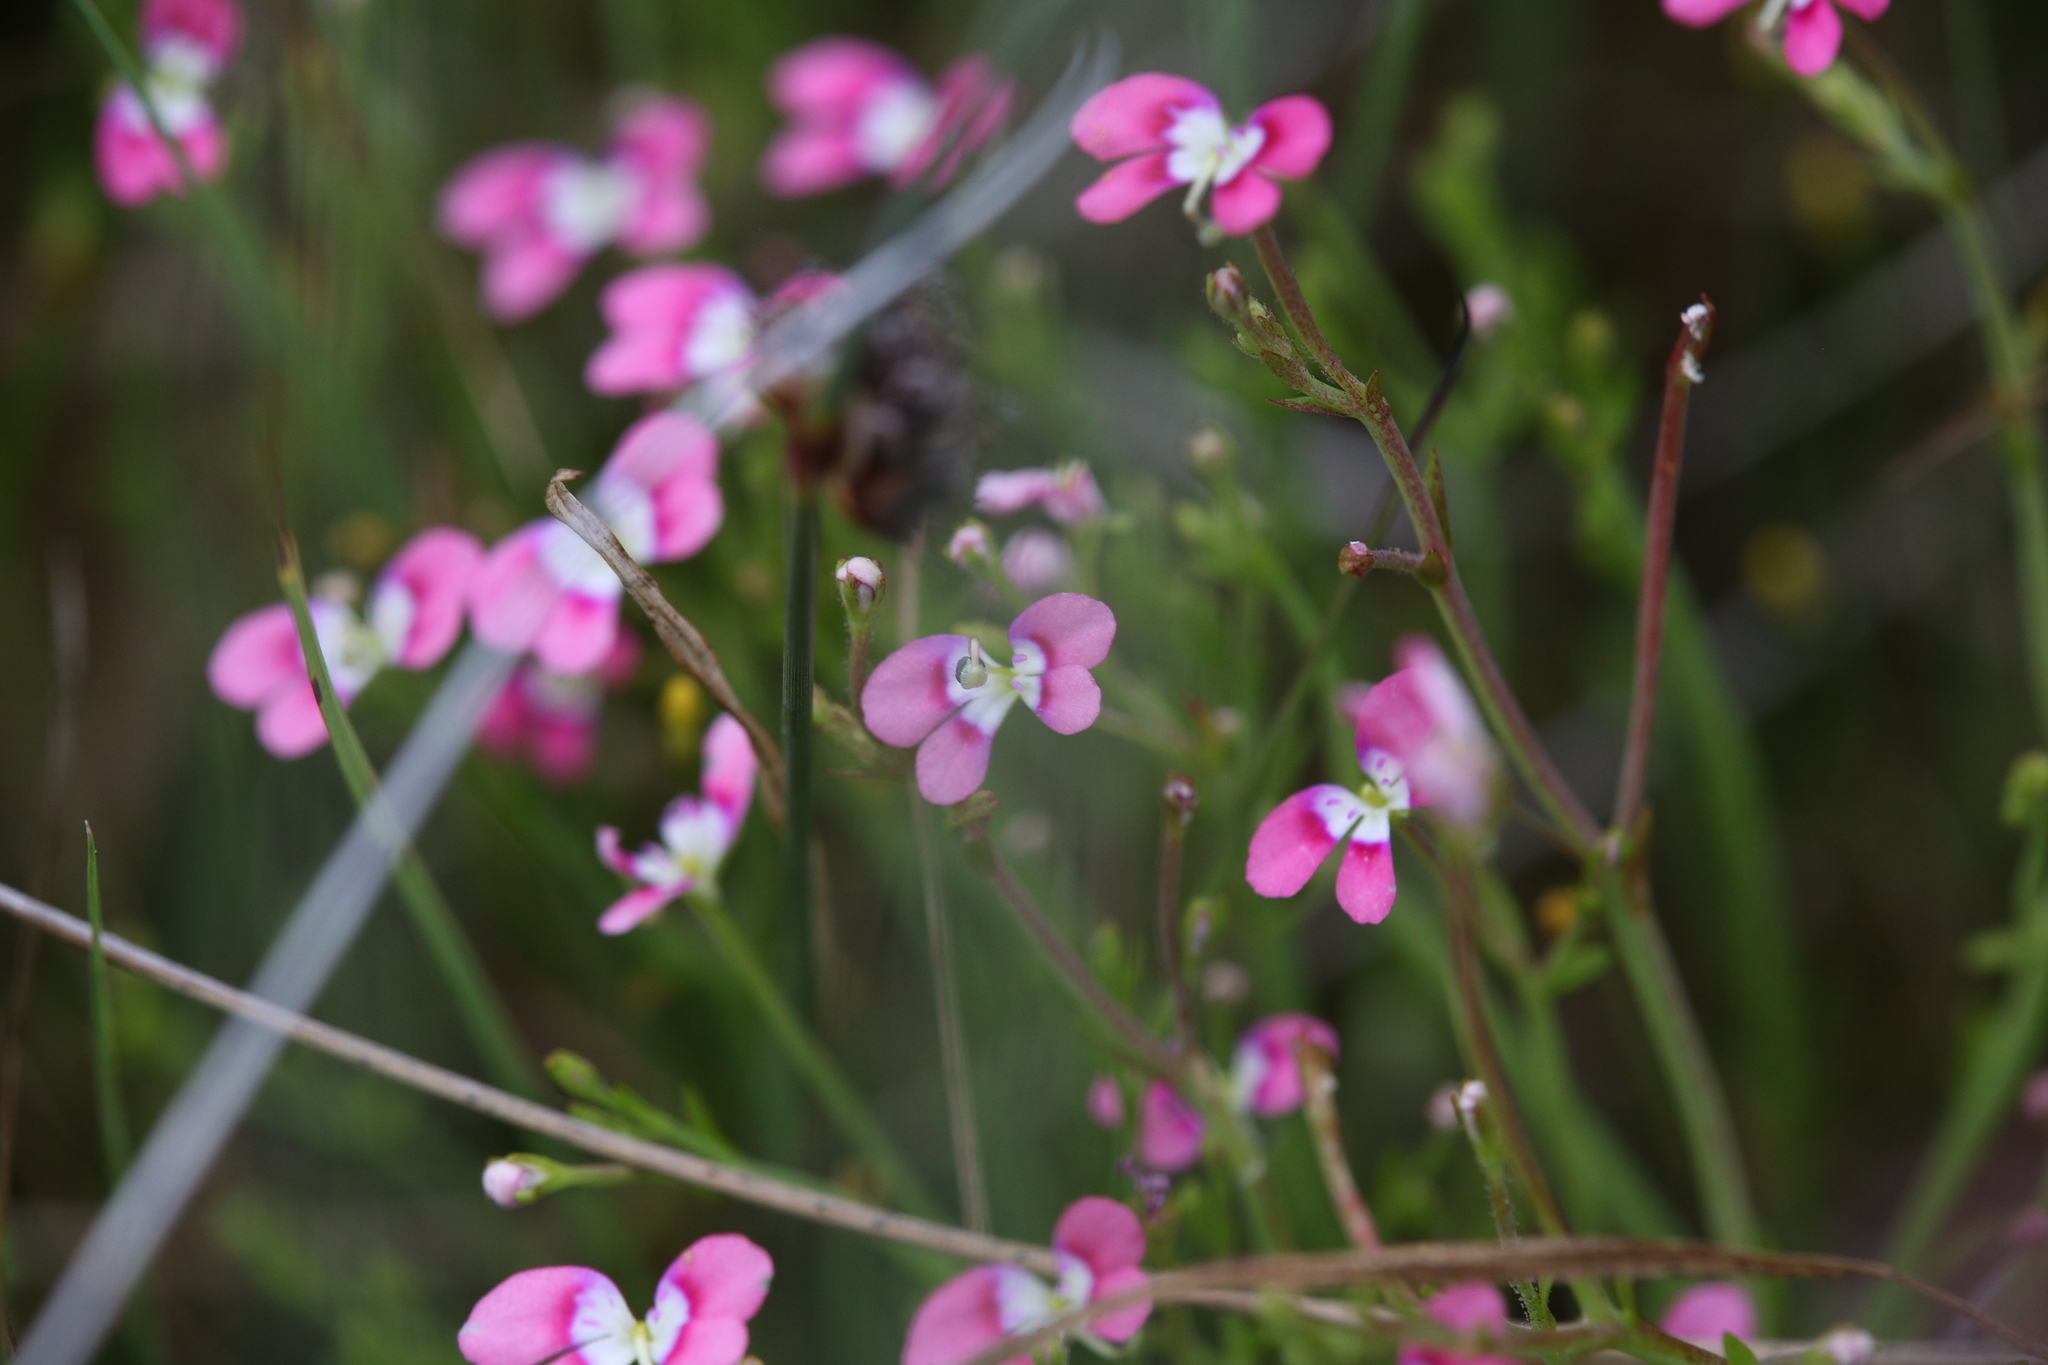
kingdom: Plantae
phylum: Tracheophyta
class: Magnoliopsida
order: Asterales
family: Stylidiaceae
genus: Stylidium
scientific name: Stylidium longitubum
